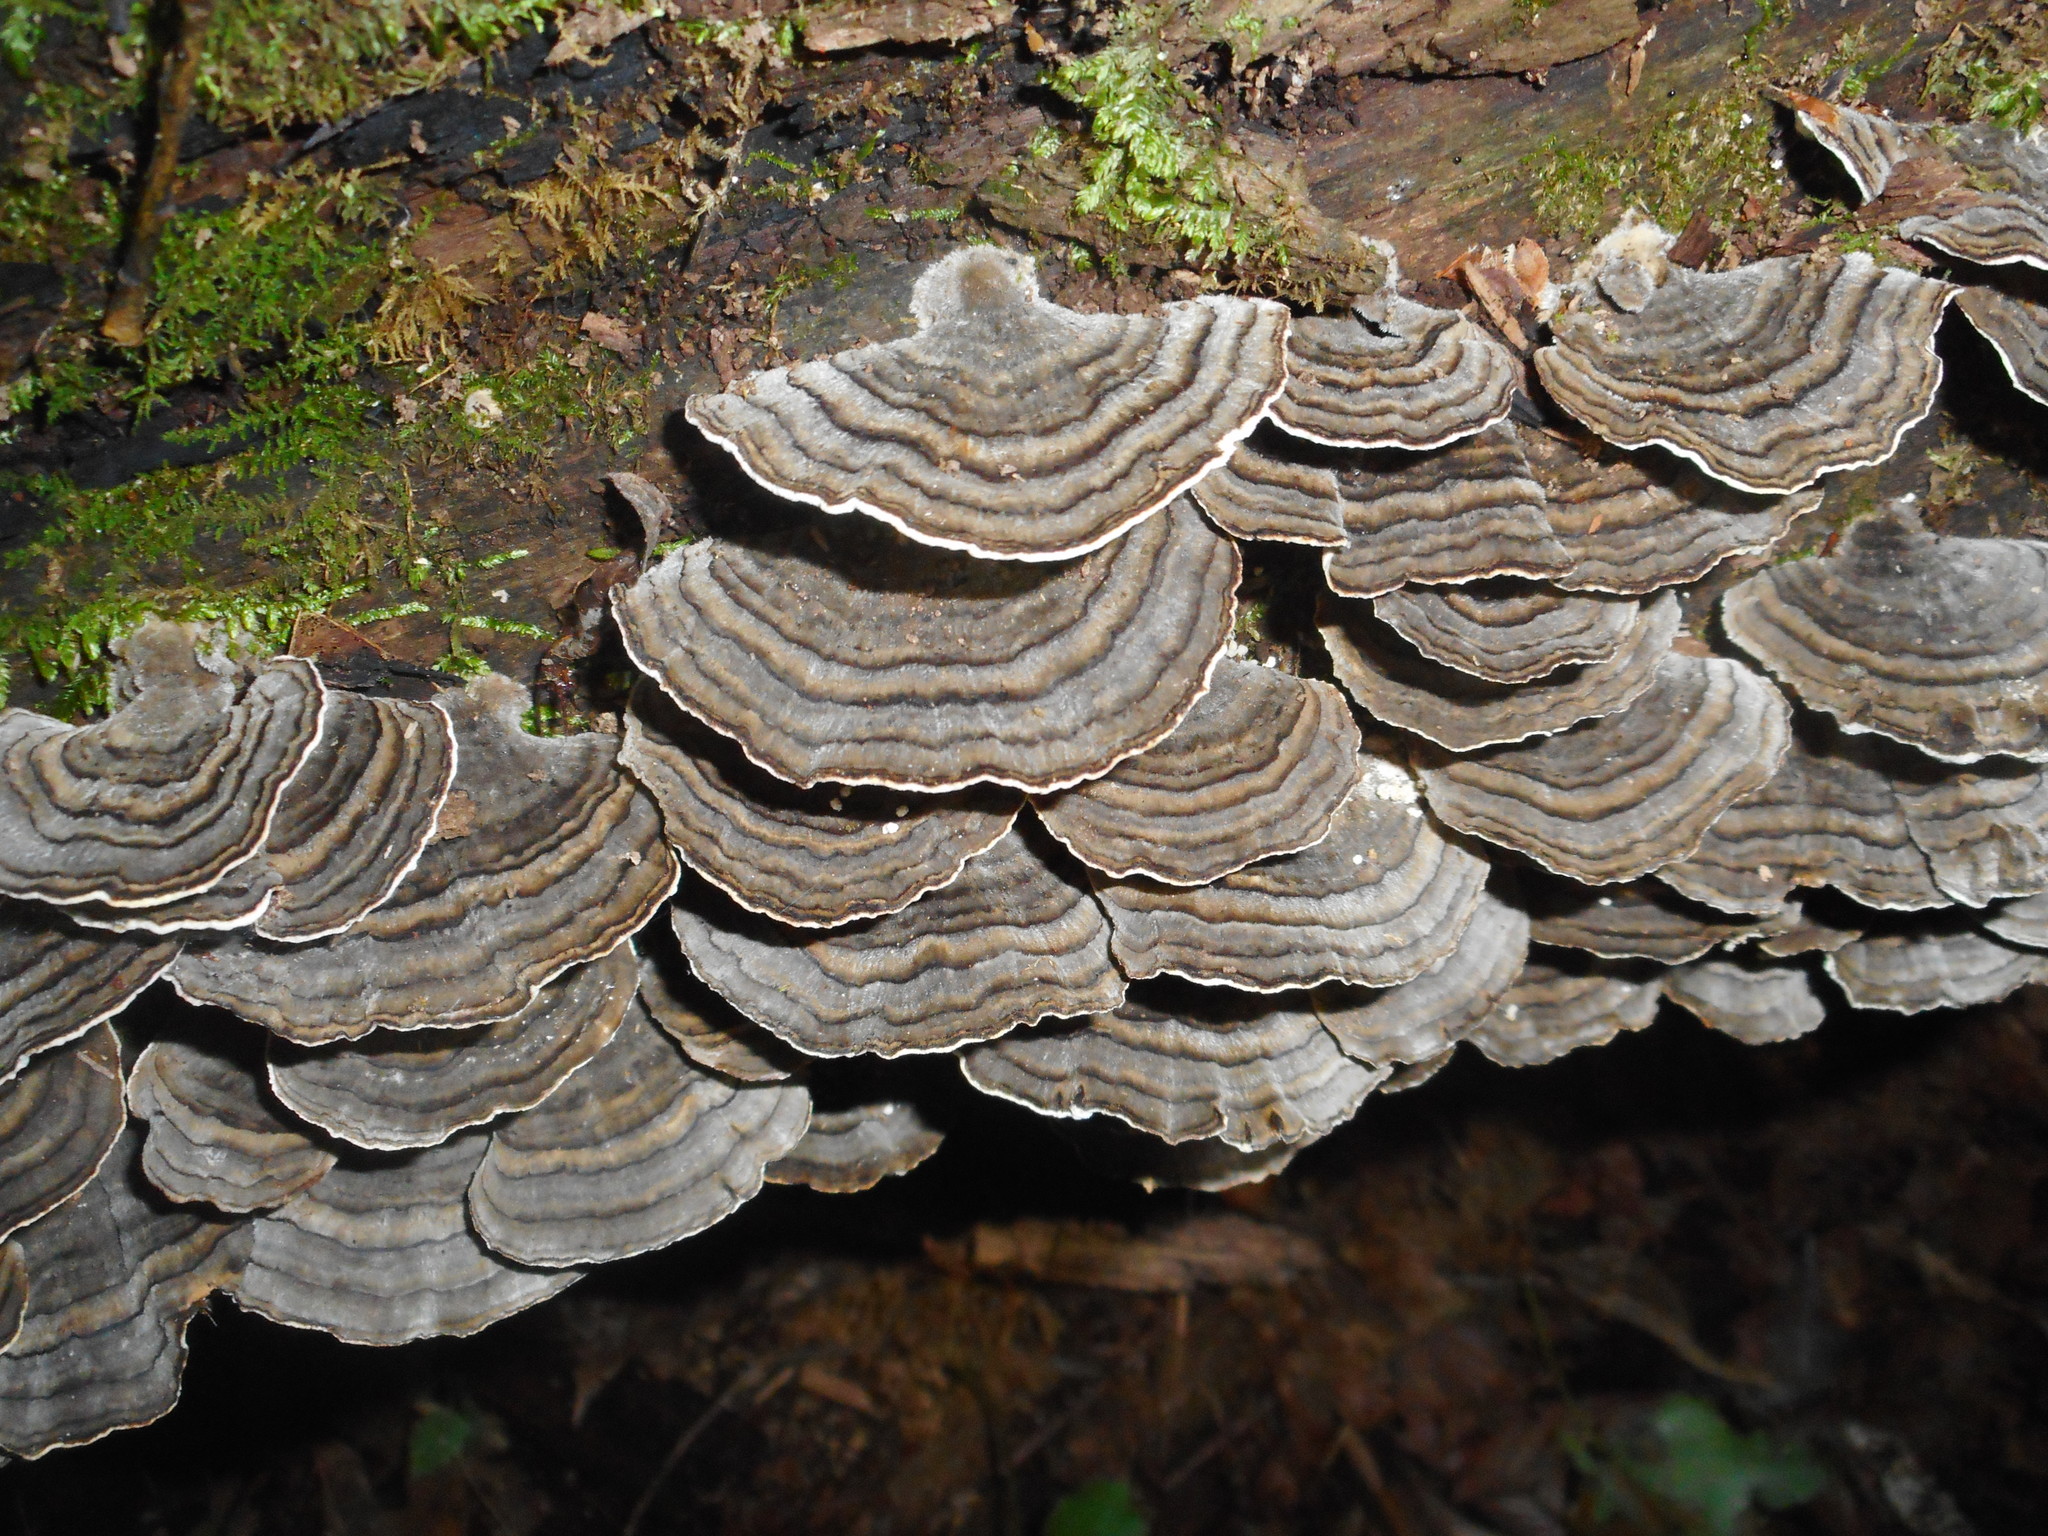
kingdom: Fungi
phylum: Basidiomycota
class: Agaricomycetes
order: Polyporales
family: Polyporaceae
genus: Trametes
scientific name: Trametes versicolor
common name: Turkeytail
